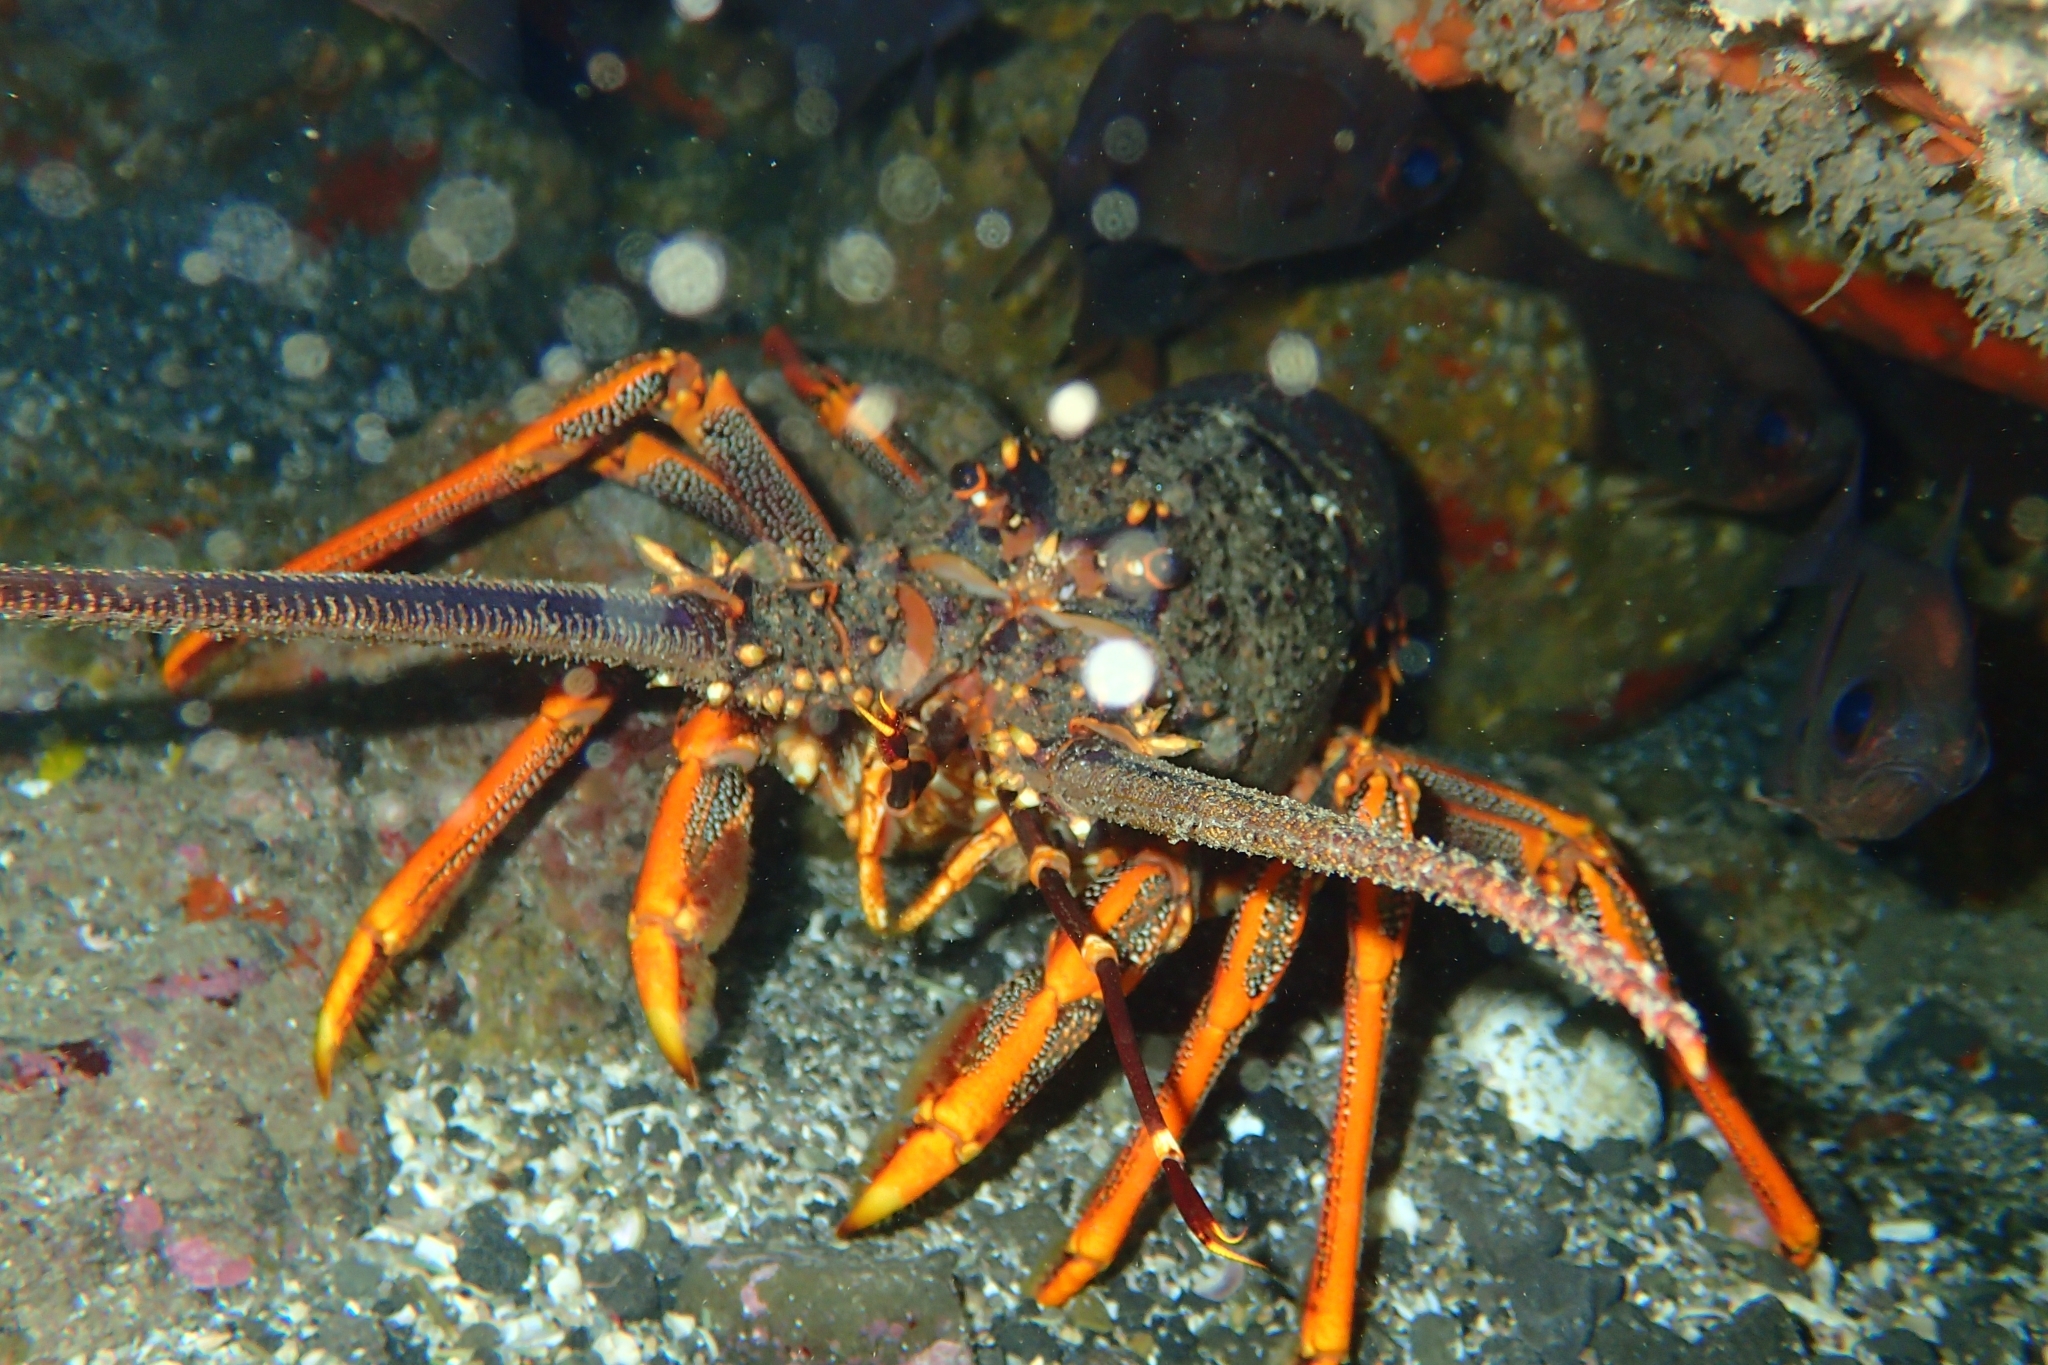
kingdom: Animalia
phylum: Arthropoda
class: Malacostraca
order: Decapoda
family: Palinuridae
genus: Jasus
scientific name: Jasus edwardsii
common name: Red rock lobster
